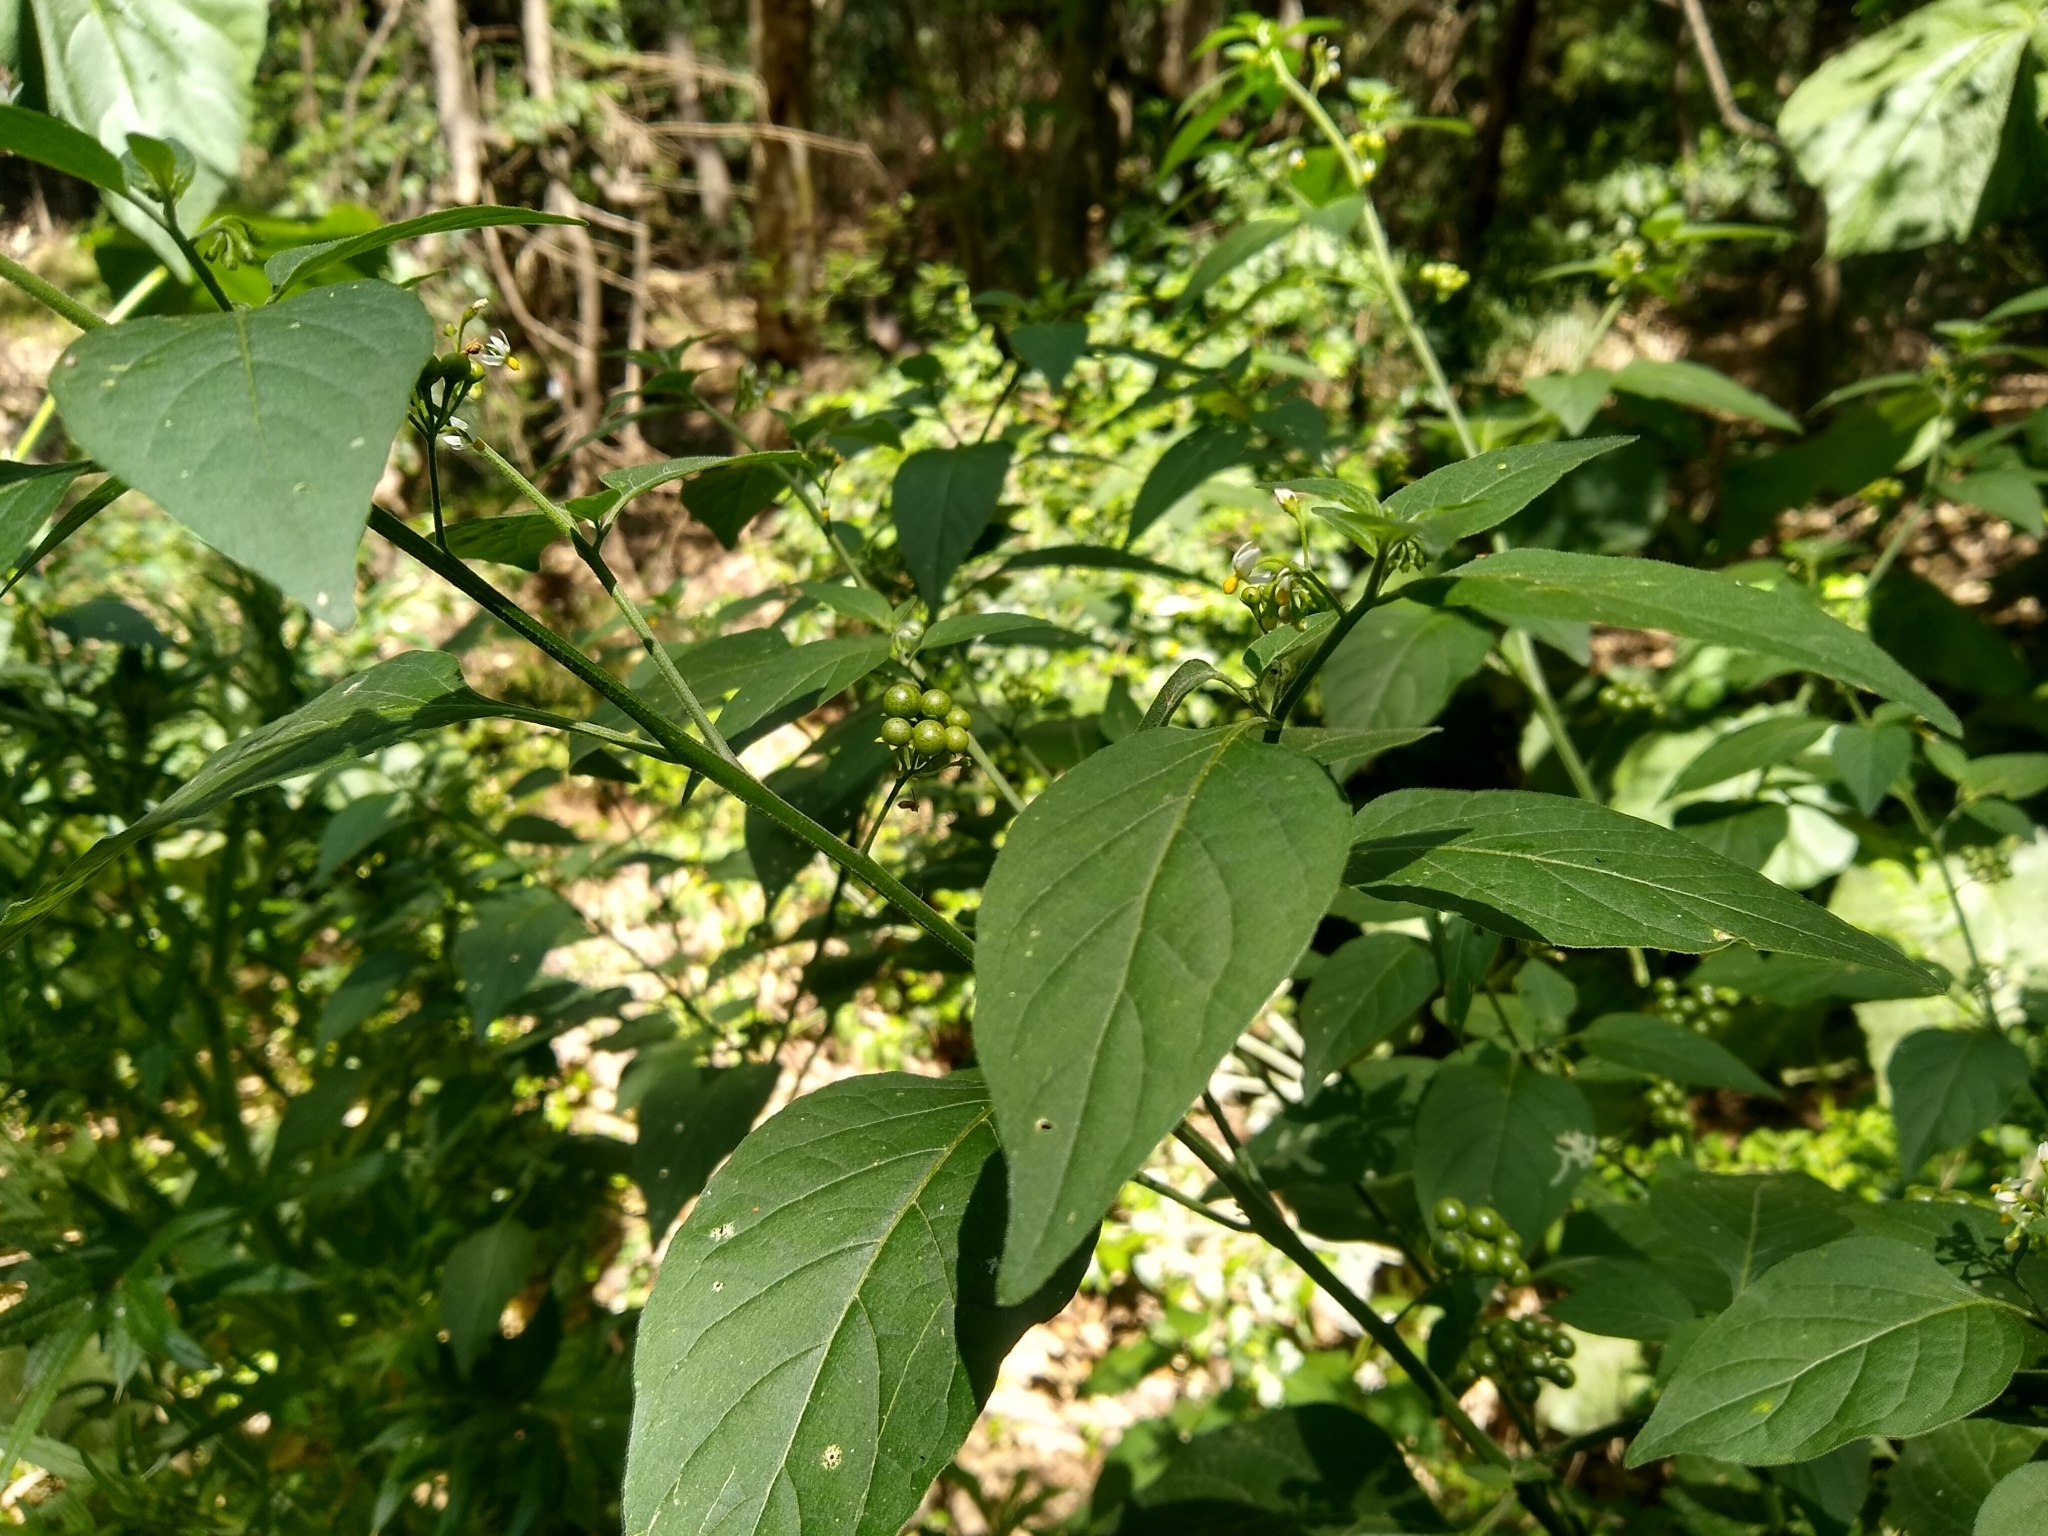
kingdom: Plantae
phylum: Tracheophyta
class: Magnoliopsida
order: Solanales
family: Solanaceae
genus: Solanum
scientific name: Solanum americanum
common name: American black nightshade
